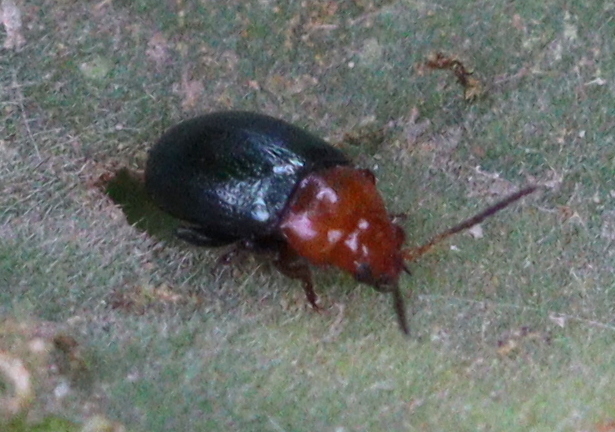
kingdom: Animalia
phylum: Arthropoda
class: Insecta
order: Coleoptera
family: Chrysomelidae
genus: Podagrica
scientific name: Podagrica fuscipes
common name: Mallow flea beetle
